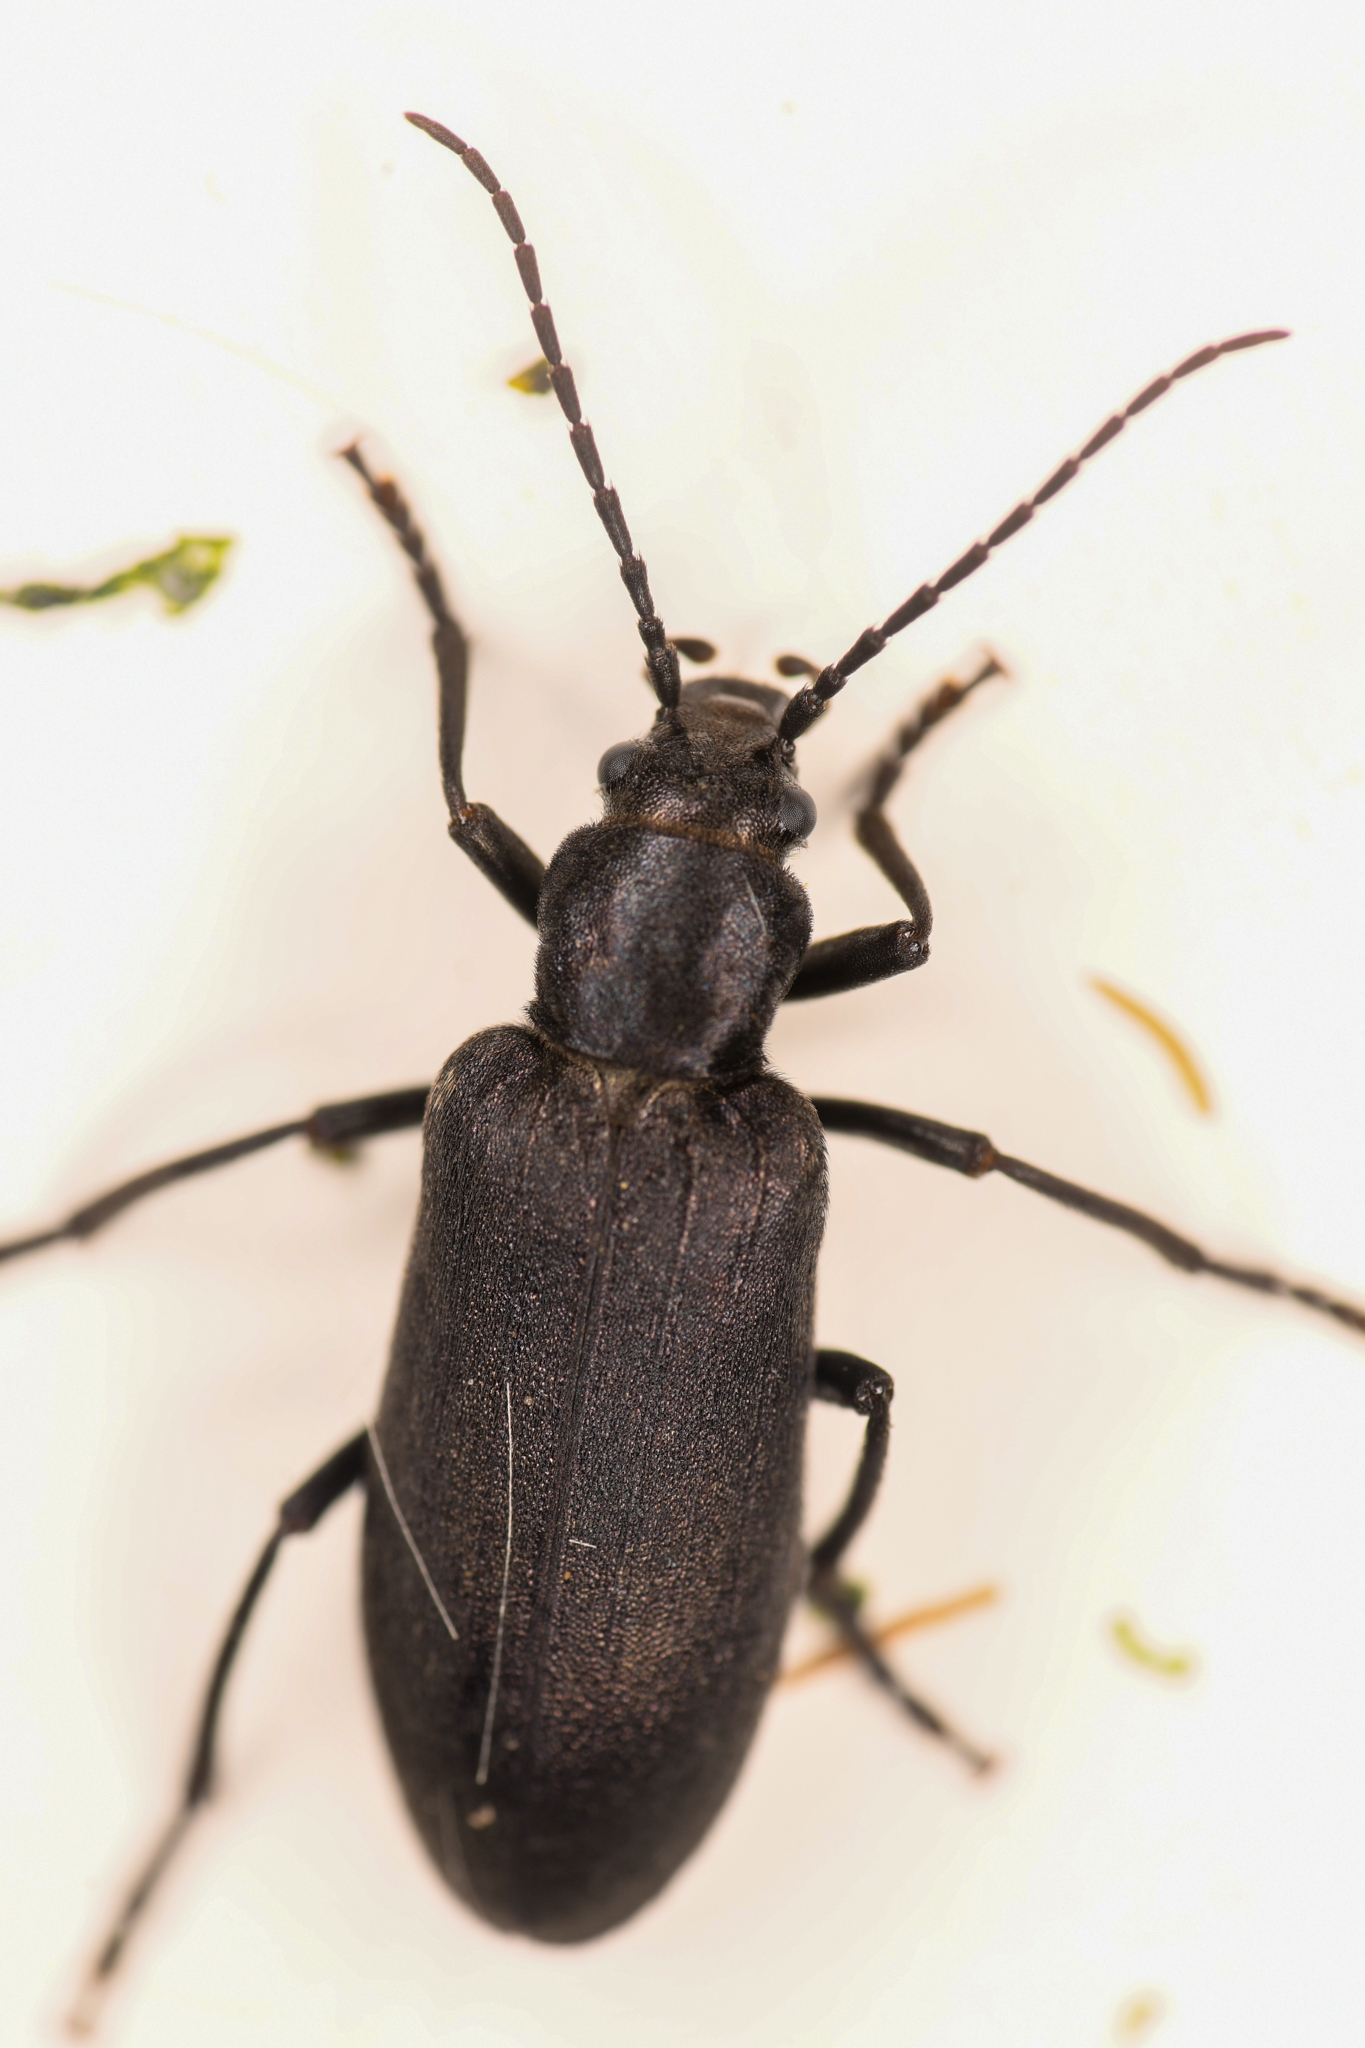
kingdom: Animalia
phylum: Arthropoda
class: Insecta
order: Coleoptera
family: Oedemeridae
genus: Ditylus
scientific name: Ditylus quadricollis
